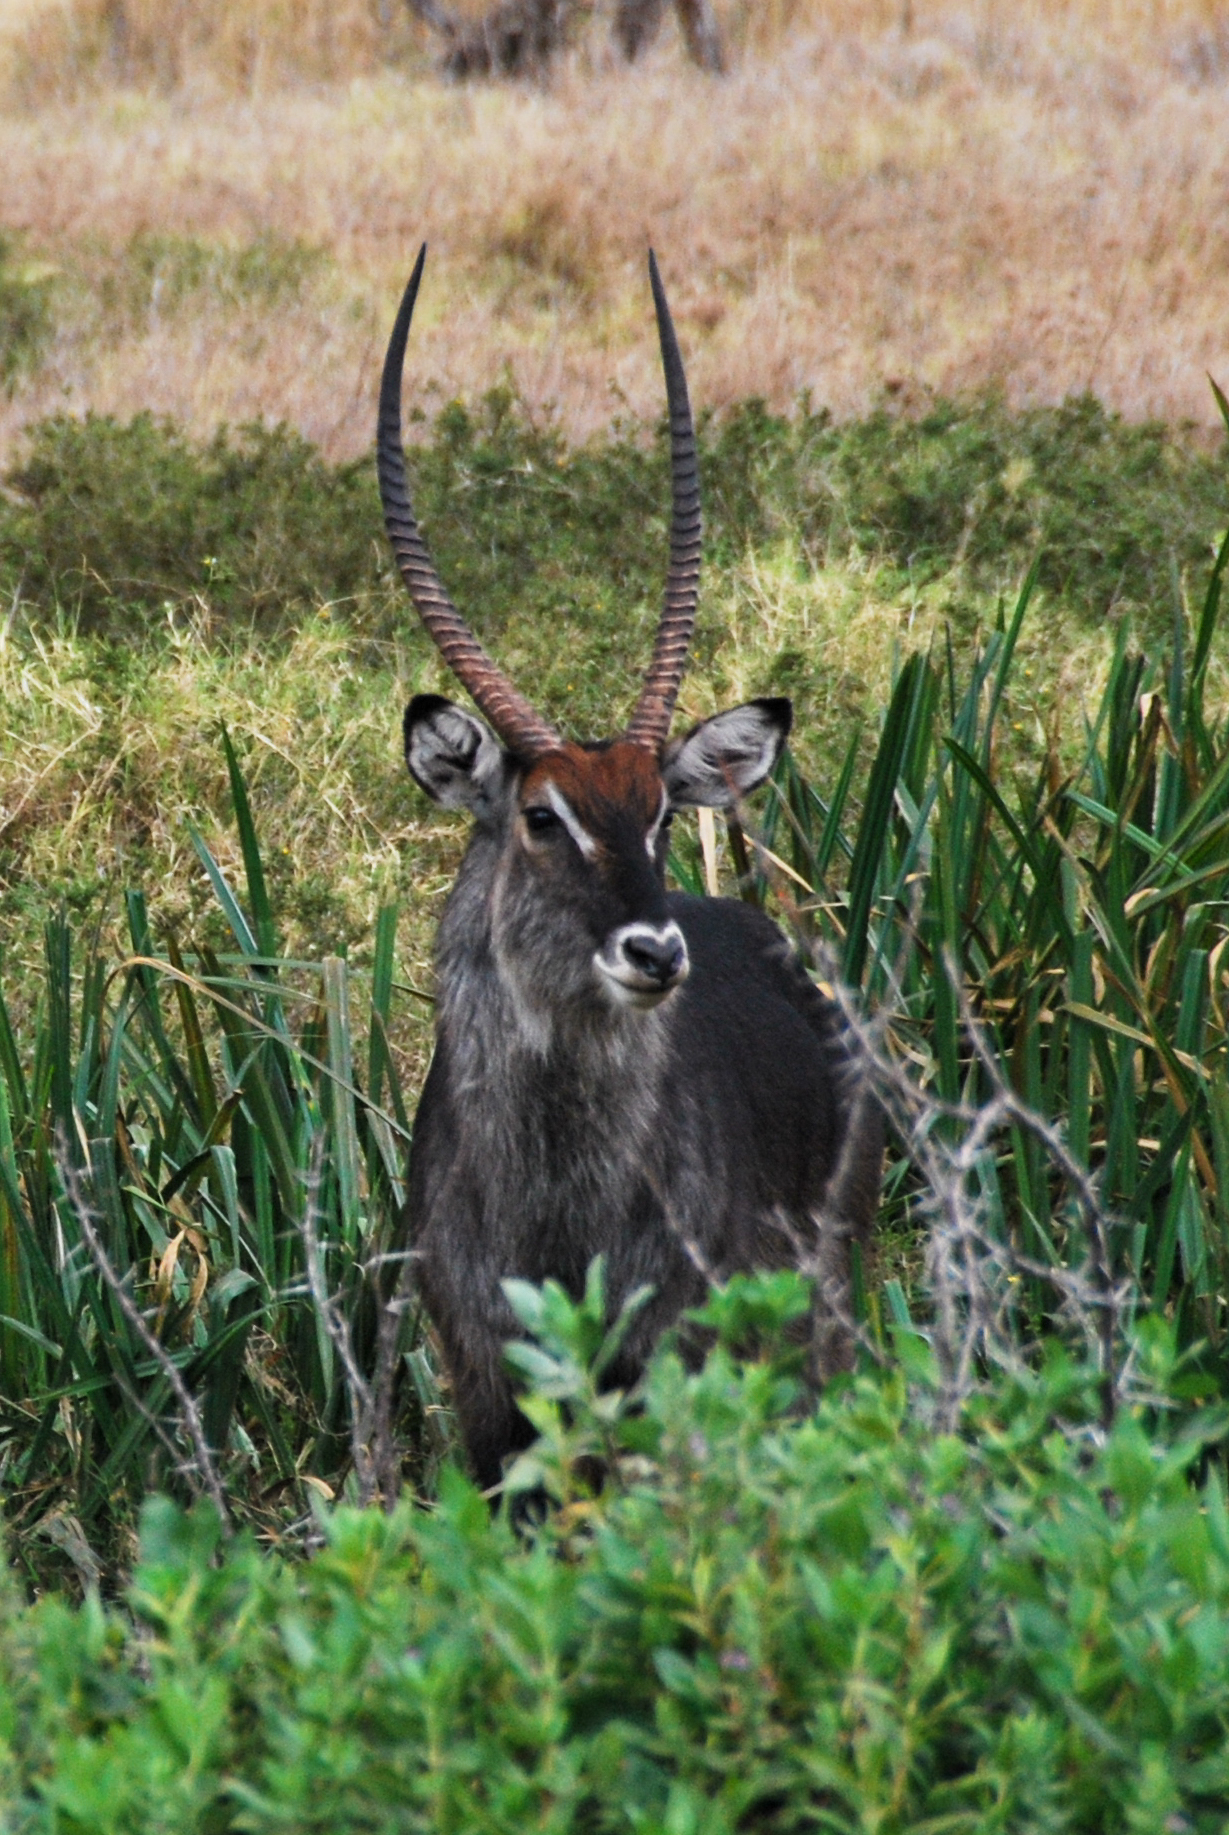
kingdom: Animalia
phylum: Chordata
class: Mammalia
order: Artiodactyla
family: Bovidae
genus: Kobus
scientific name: Kobus ellipsiprymnus
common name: Waterbuck
